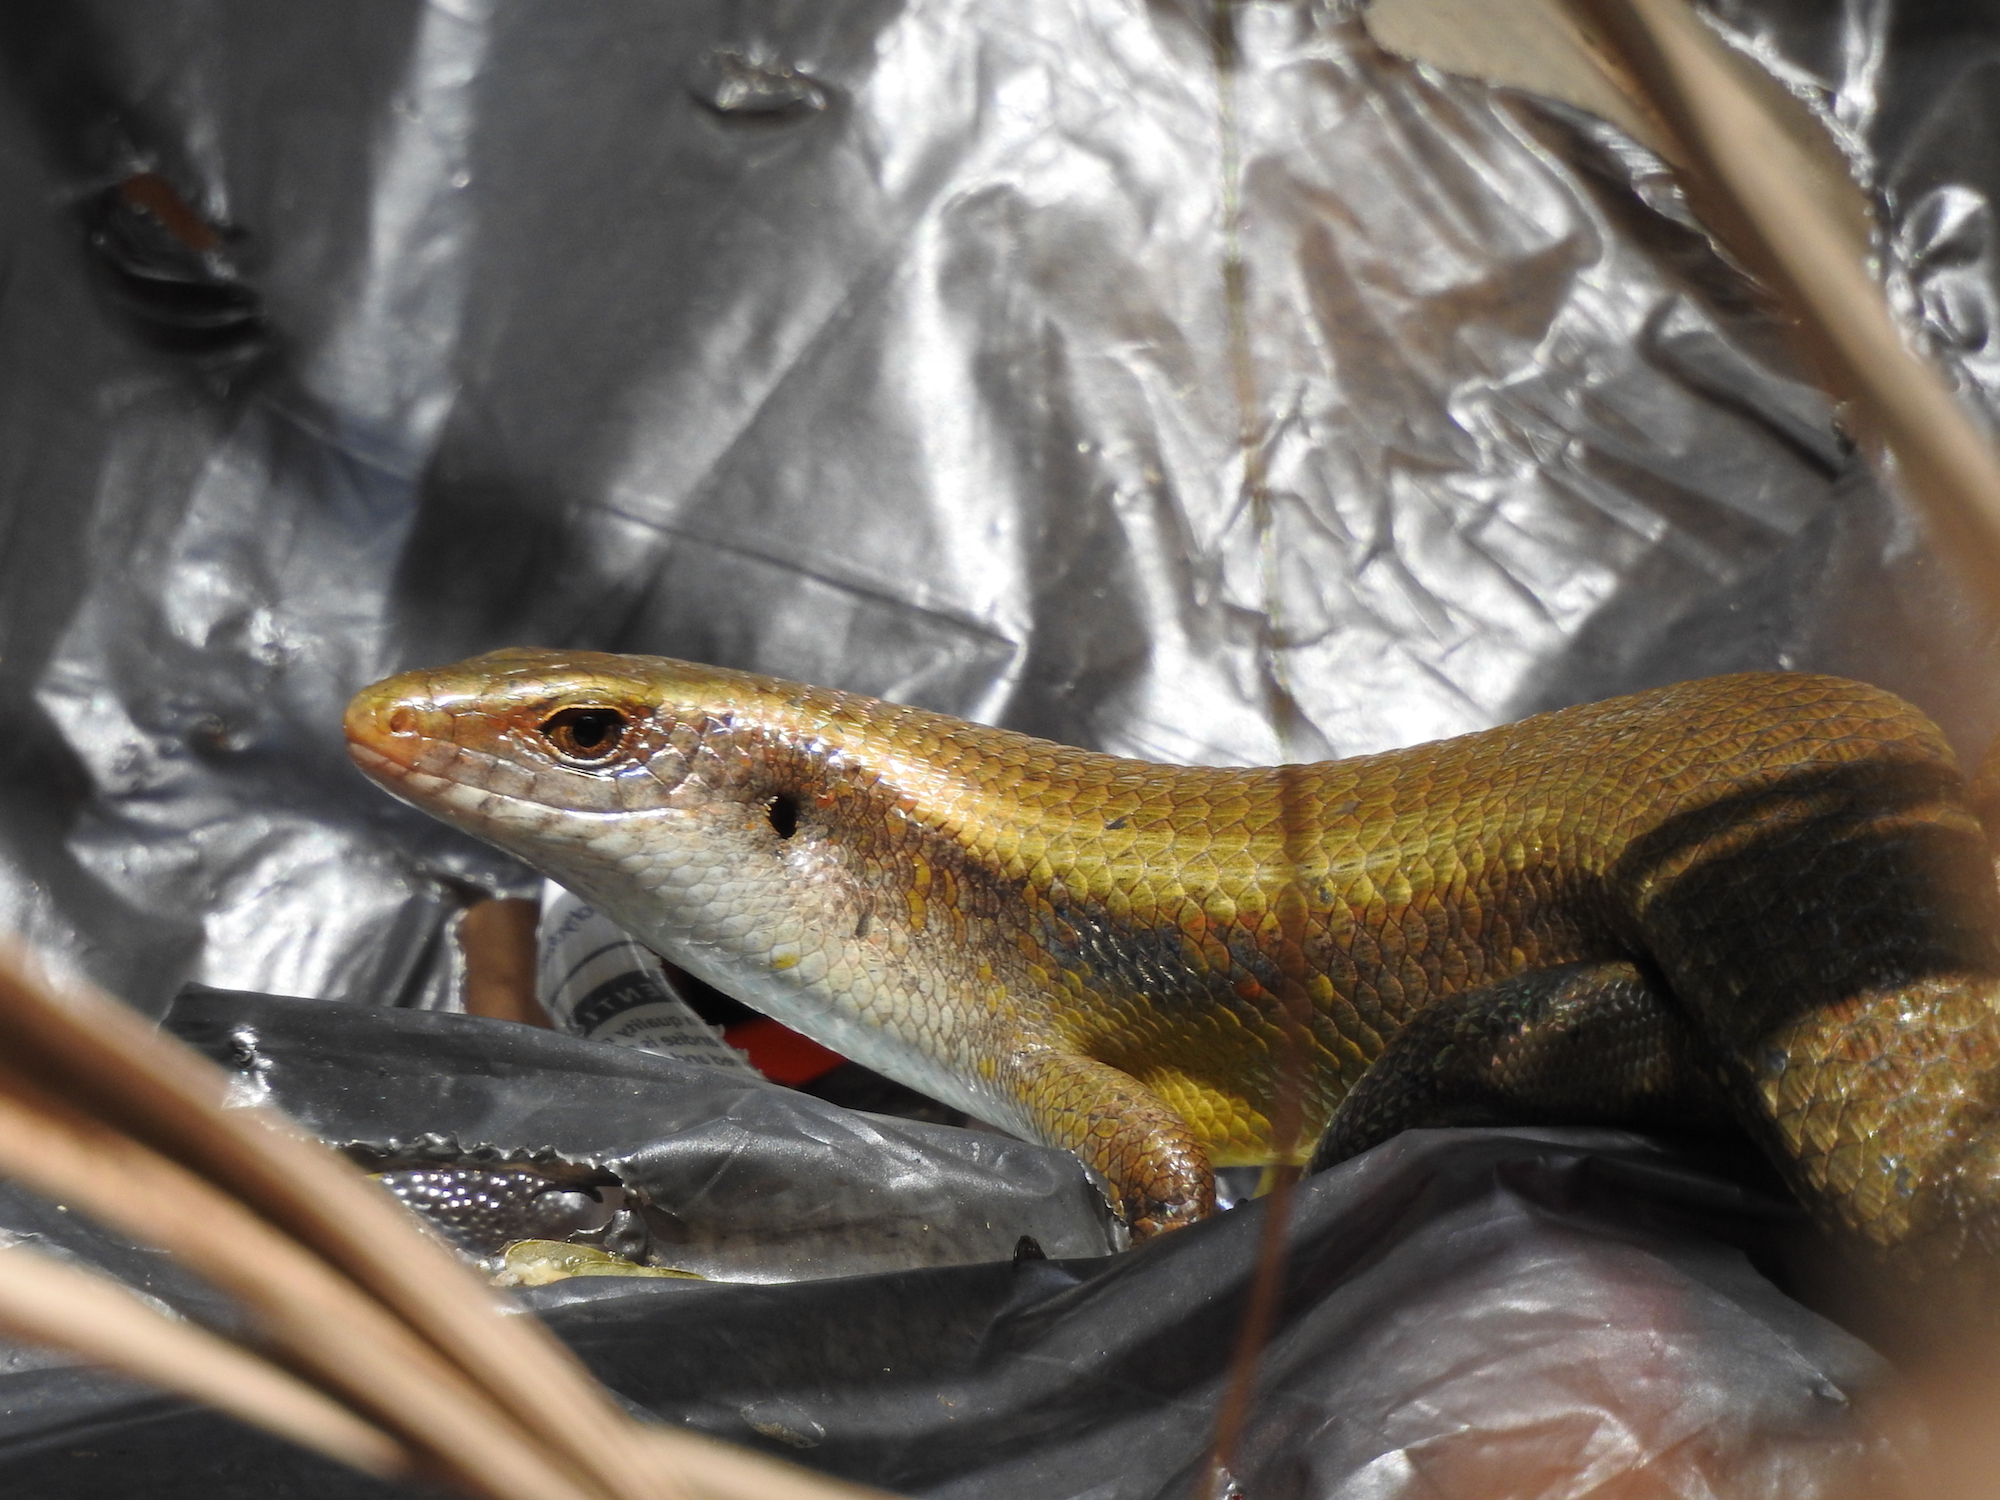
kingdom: Animalia
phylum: Chordata
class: Squamata
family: Scincidae
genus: Eutropis
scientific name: Eutropis multifasciata
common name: Common mabuya
